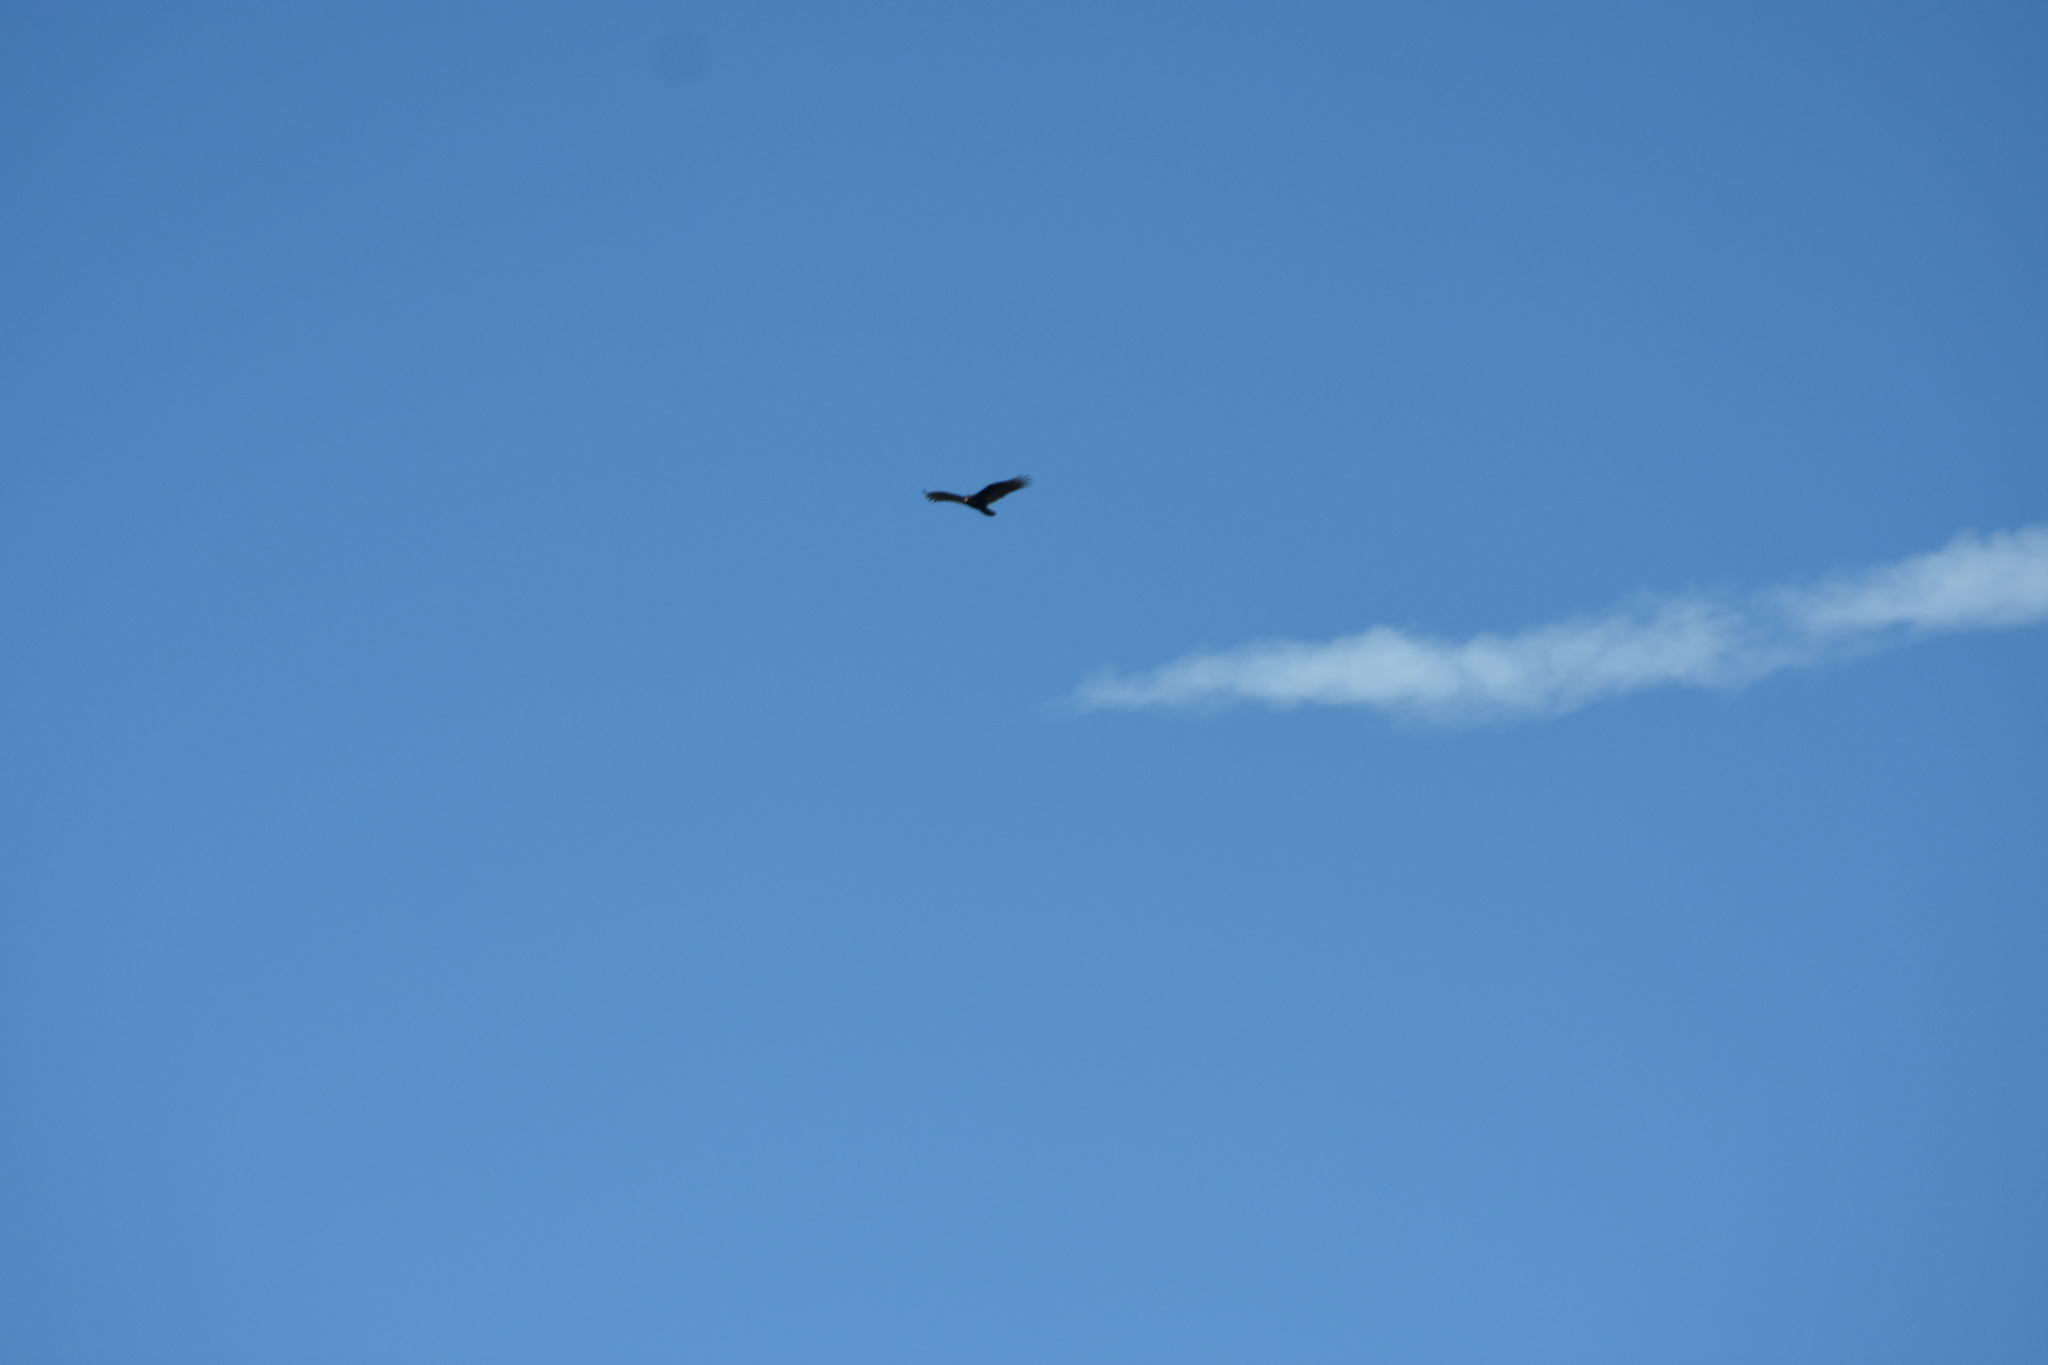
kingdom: Animalia
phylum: Chordata
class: Aves
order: Accipitriformes
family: Cathartidae
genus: Cathartes
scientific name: Cathartes aura
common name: Turkey vulture
